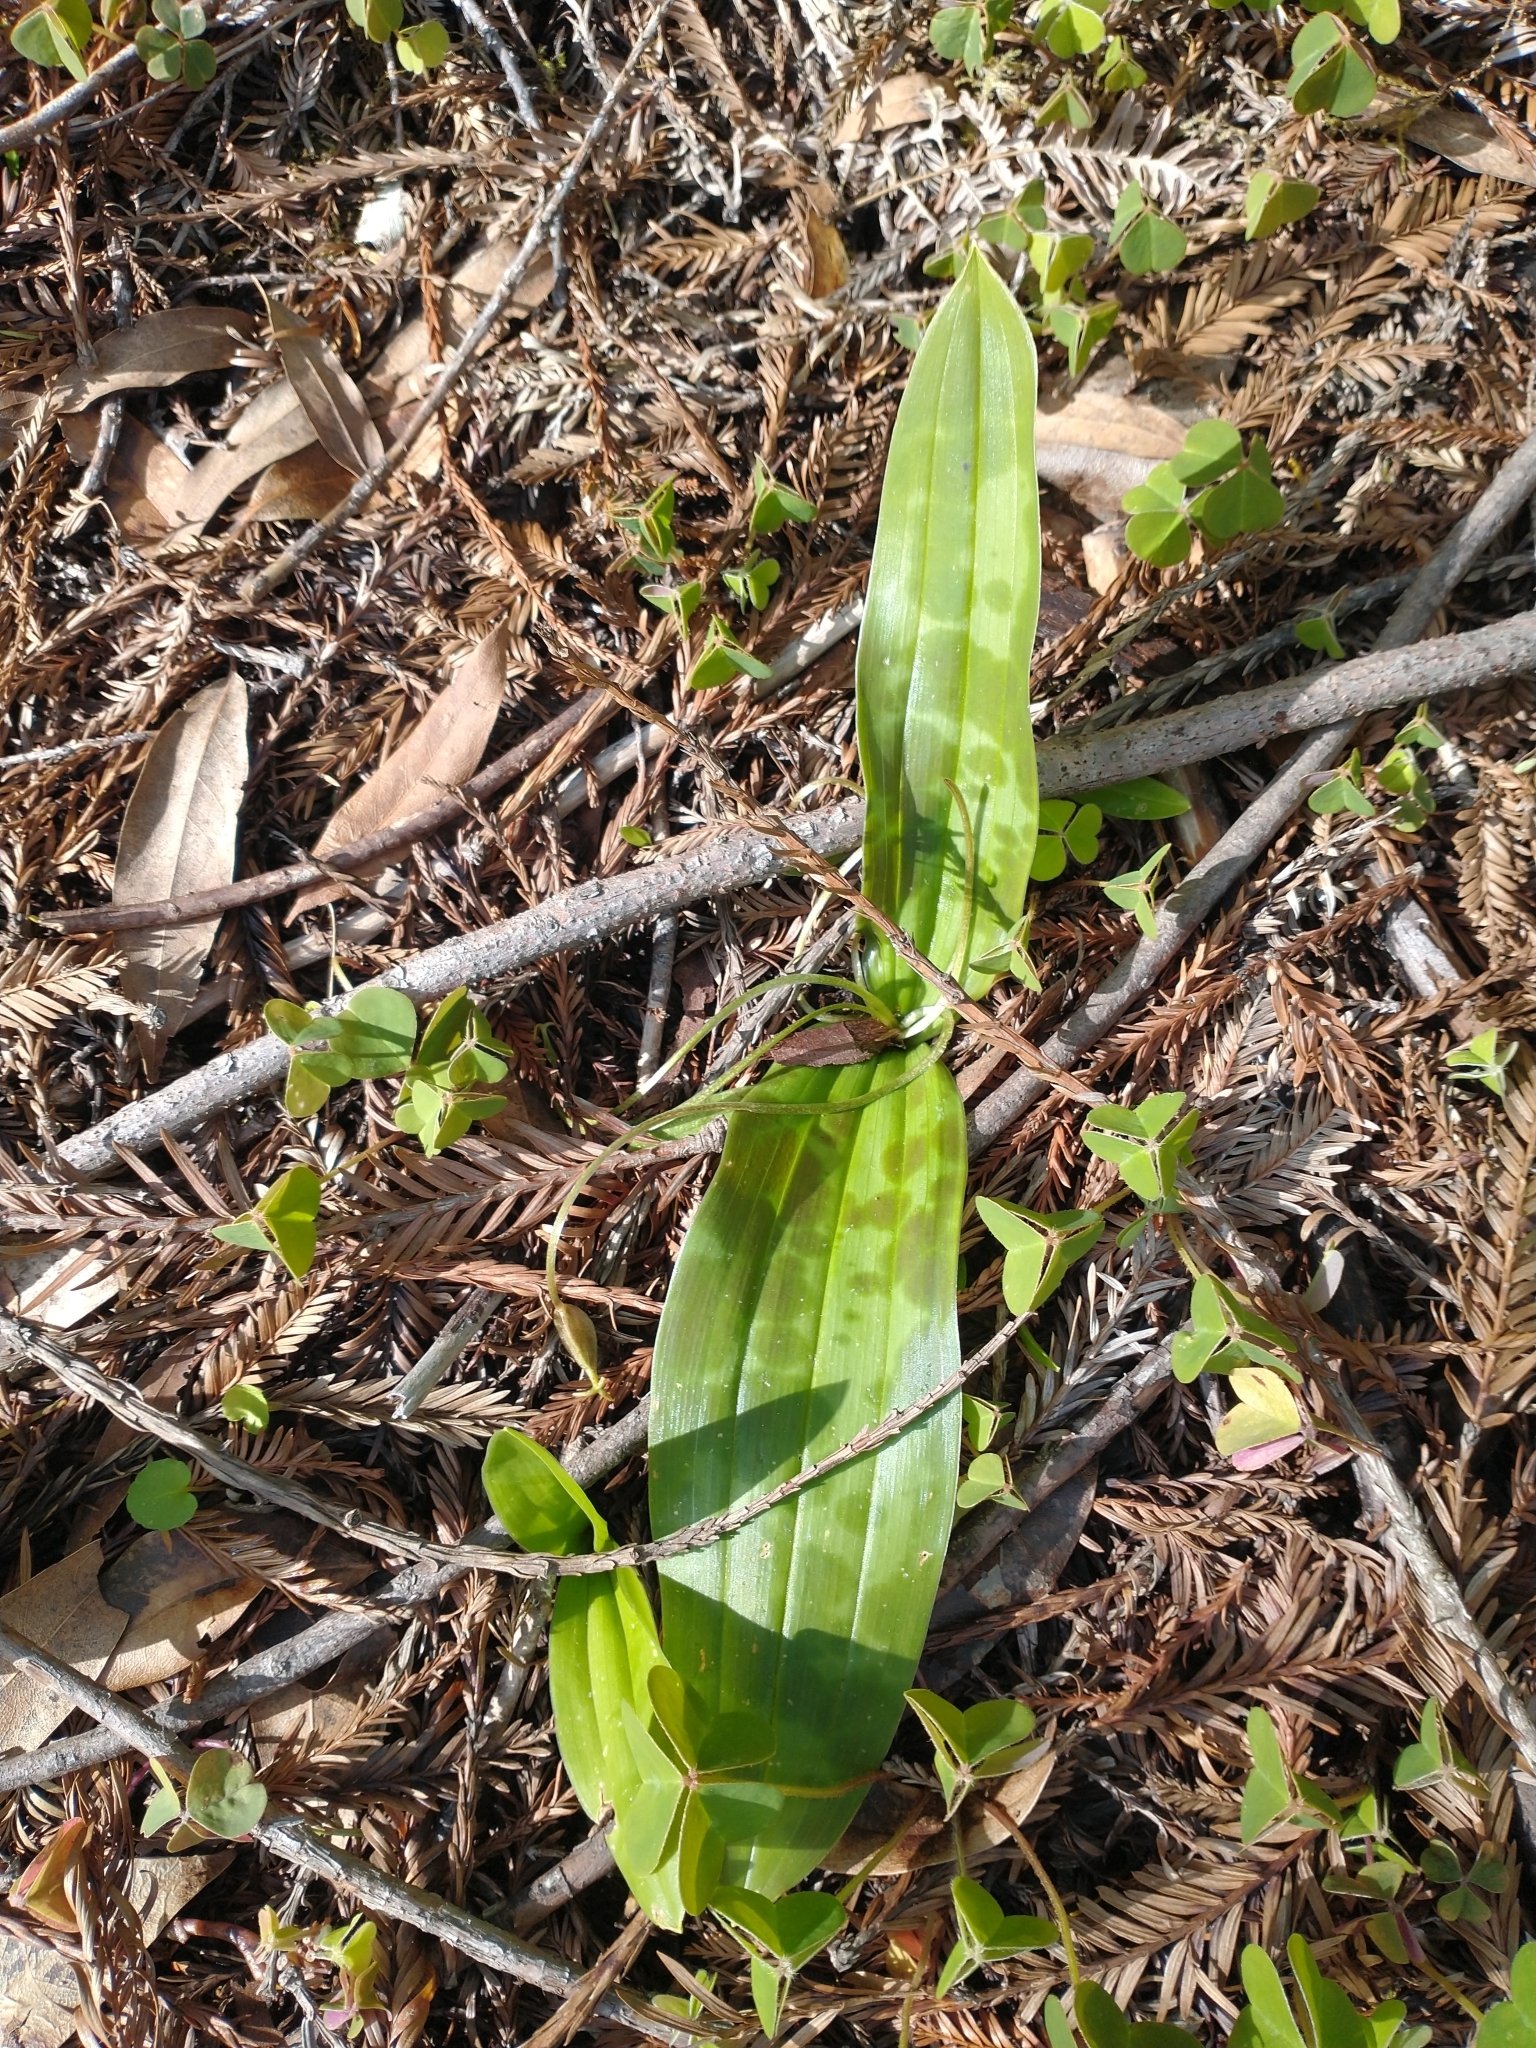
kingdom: Plantae
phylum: Tracheophyta
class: Liliopsida
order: Liliales
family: Liliaceae
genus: Scoliopus
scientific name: Scoliopus bigelovii
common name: Foetid adder's-tongue
